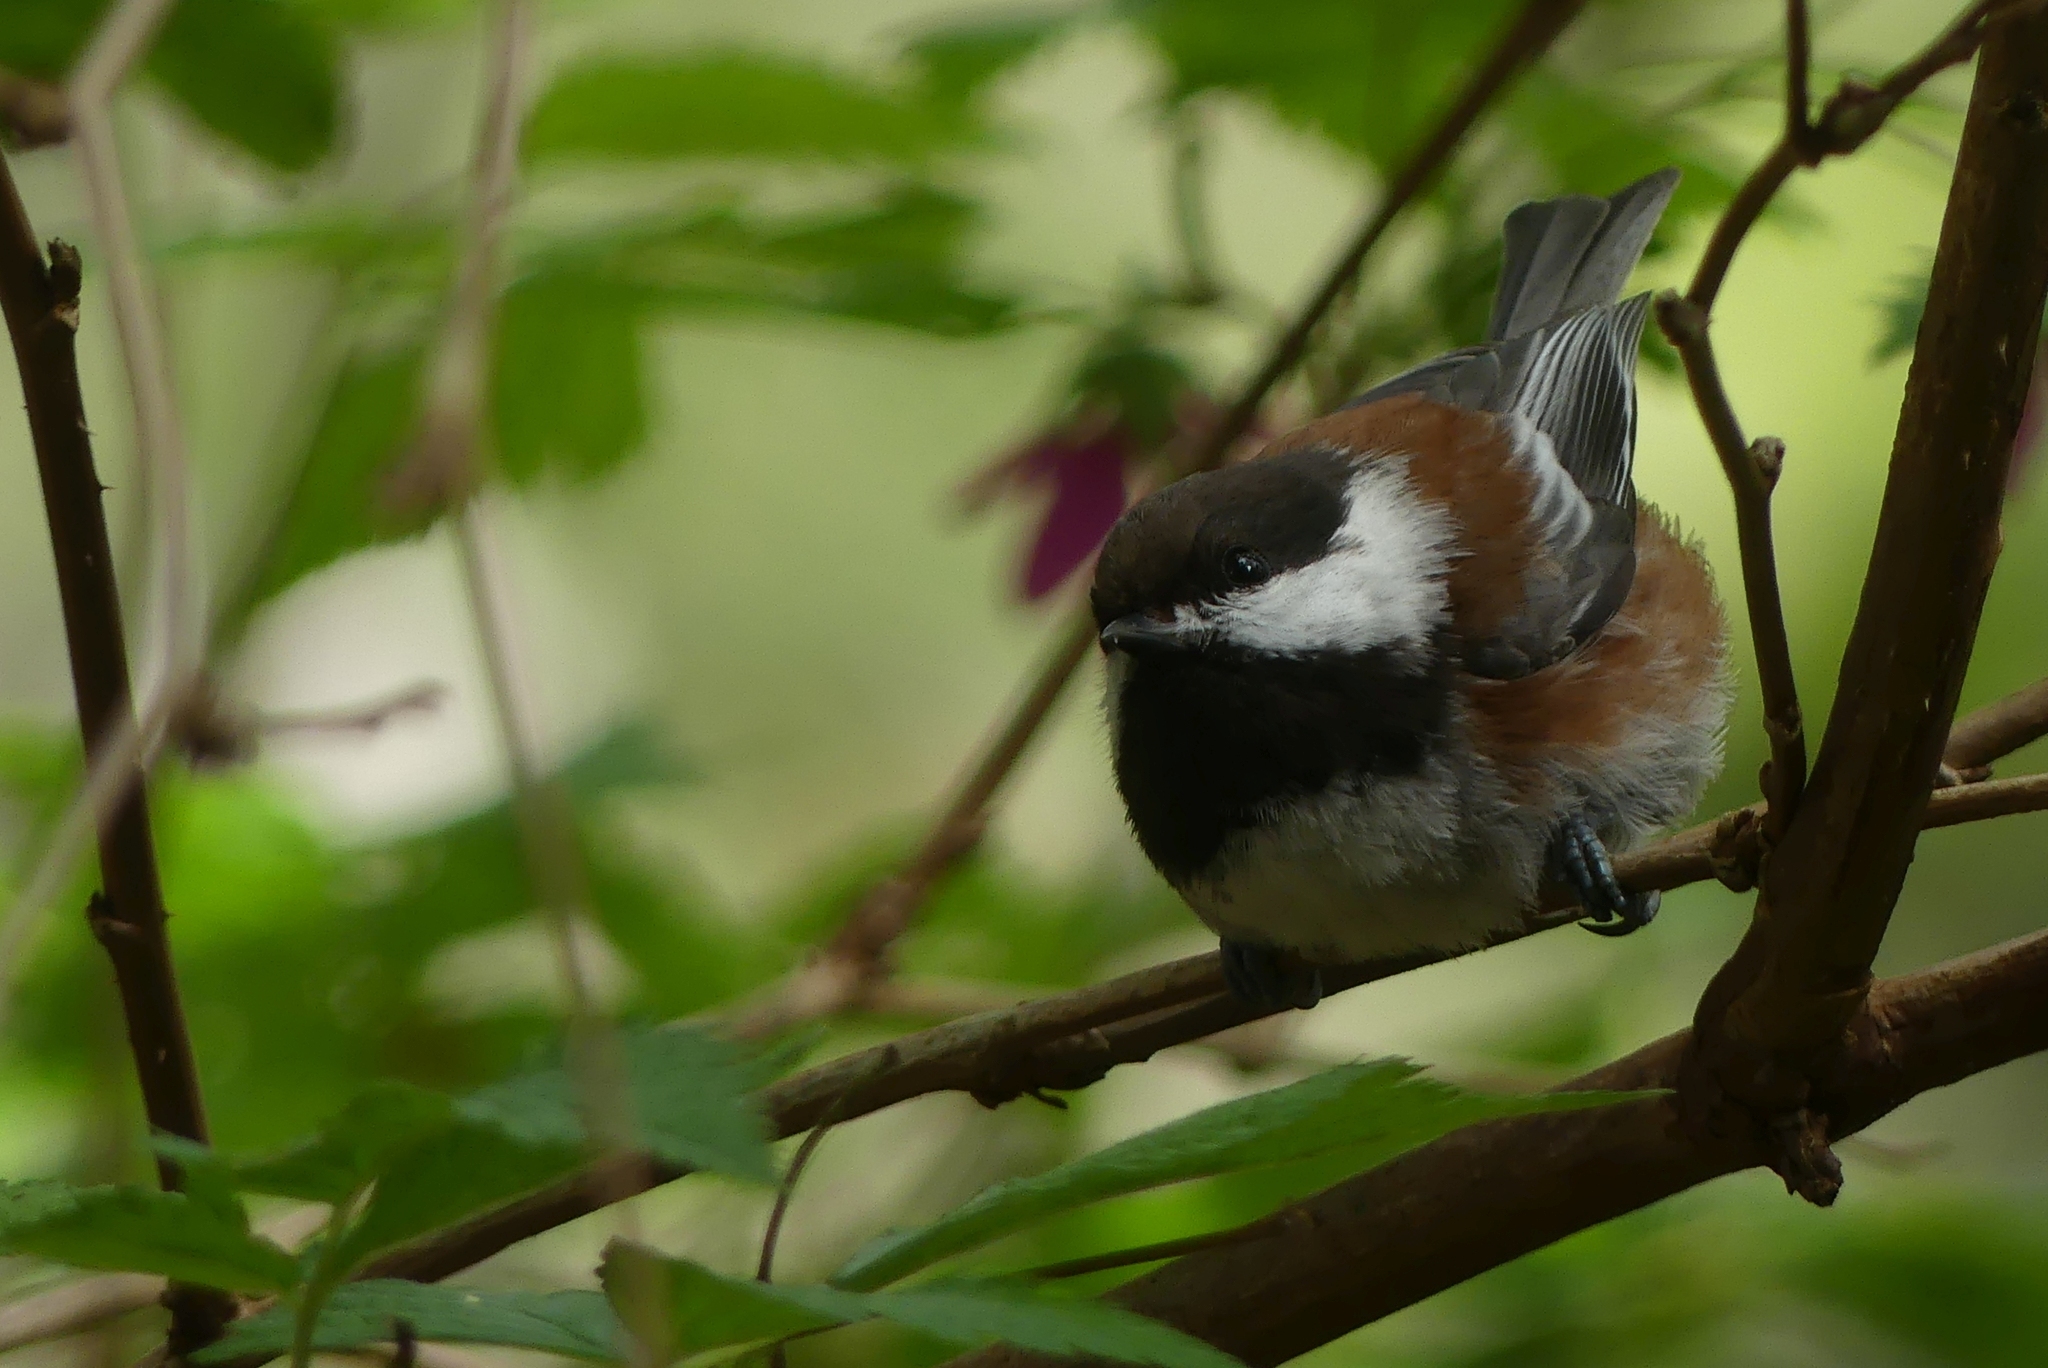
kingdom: Animalia
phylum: Chordata
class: Aves
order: Passeriformes
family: Paridae
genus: Poecile
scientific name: Poecile rufescens
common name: Chestnut-backed chickadee
